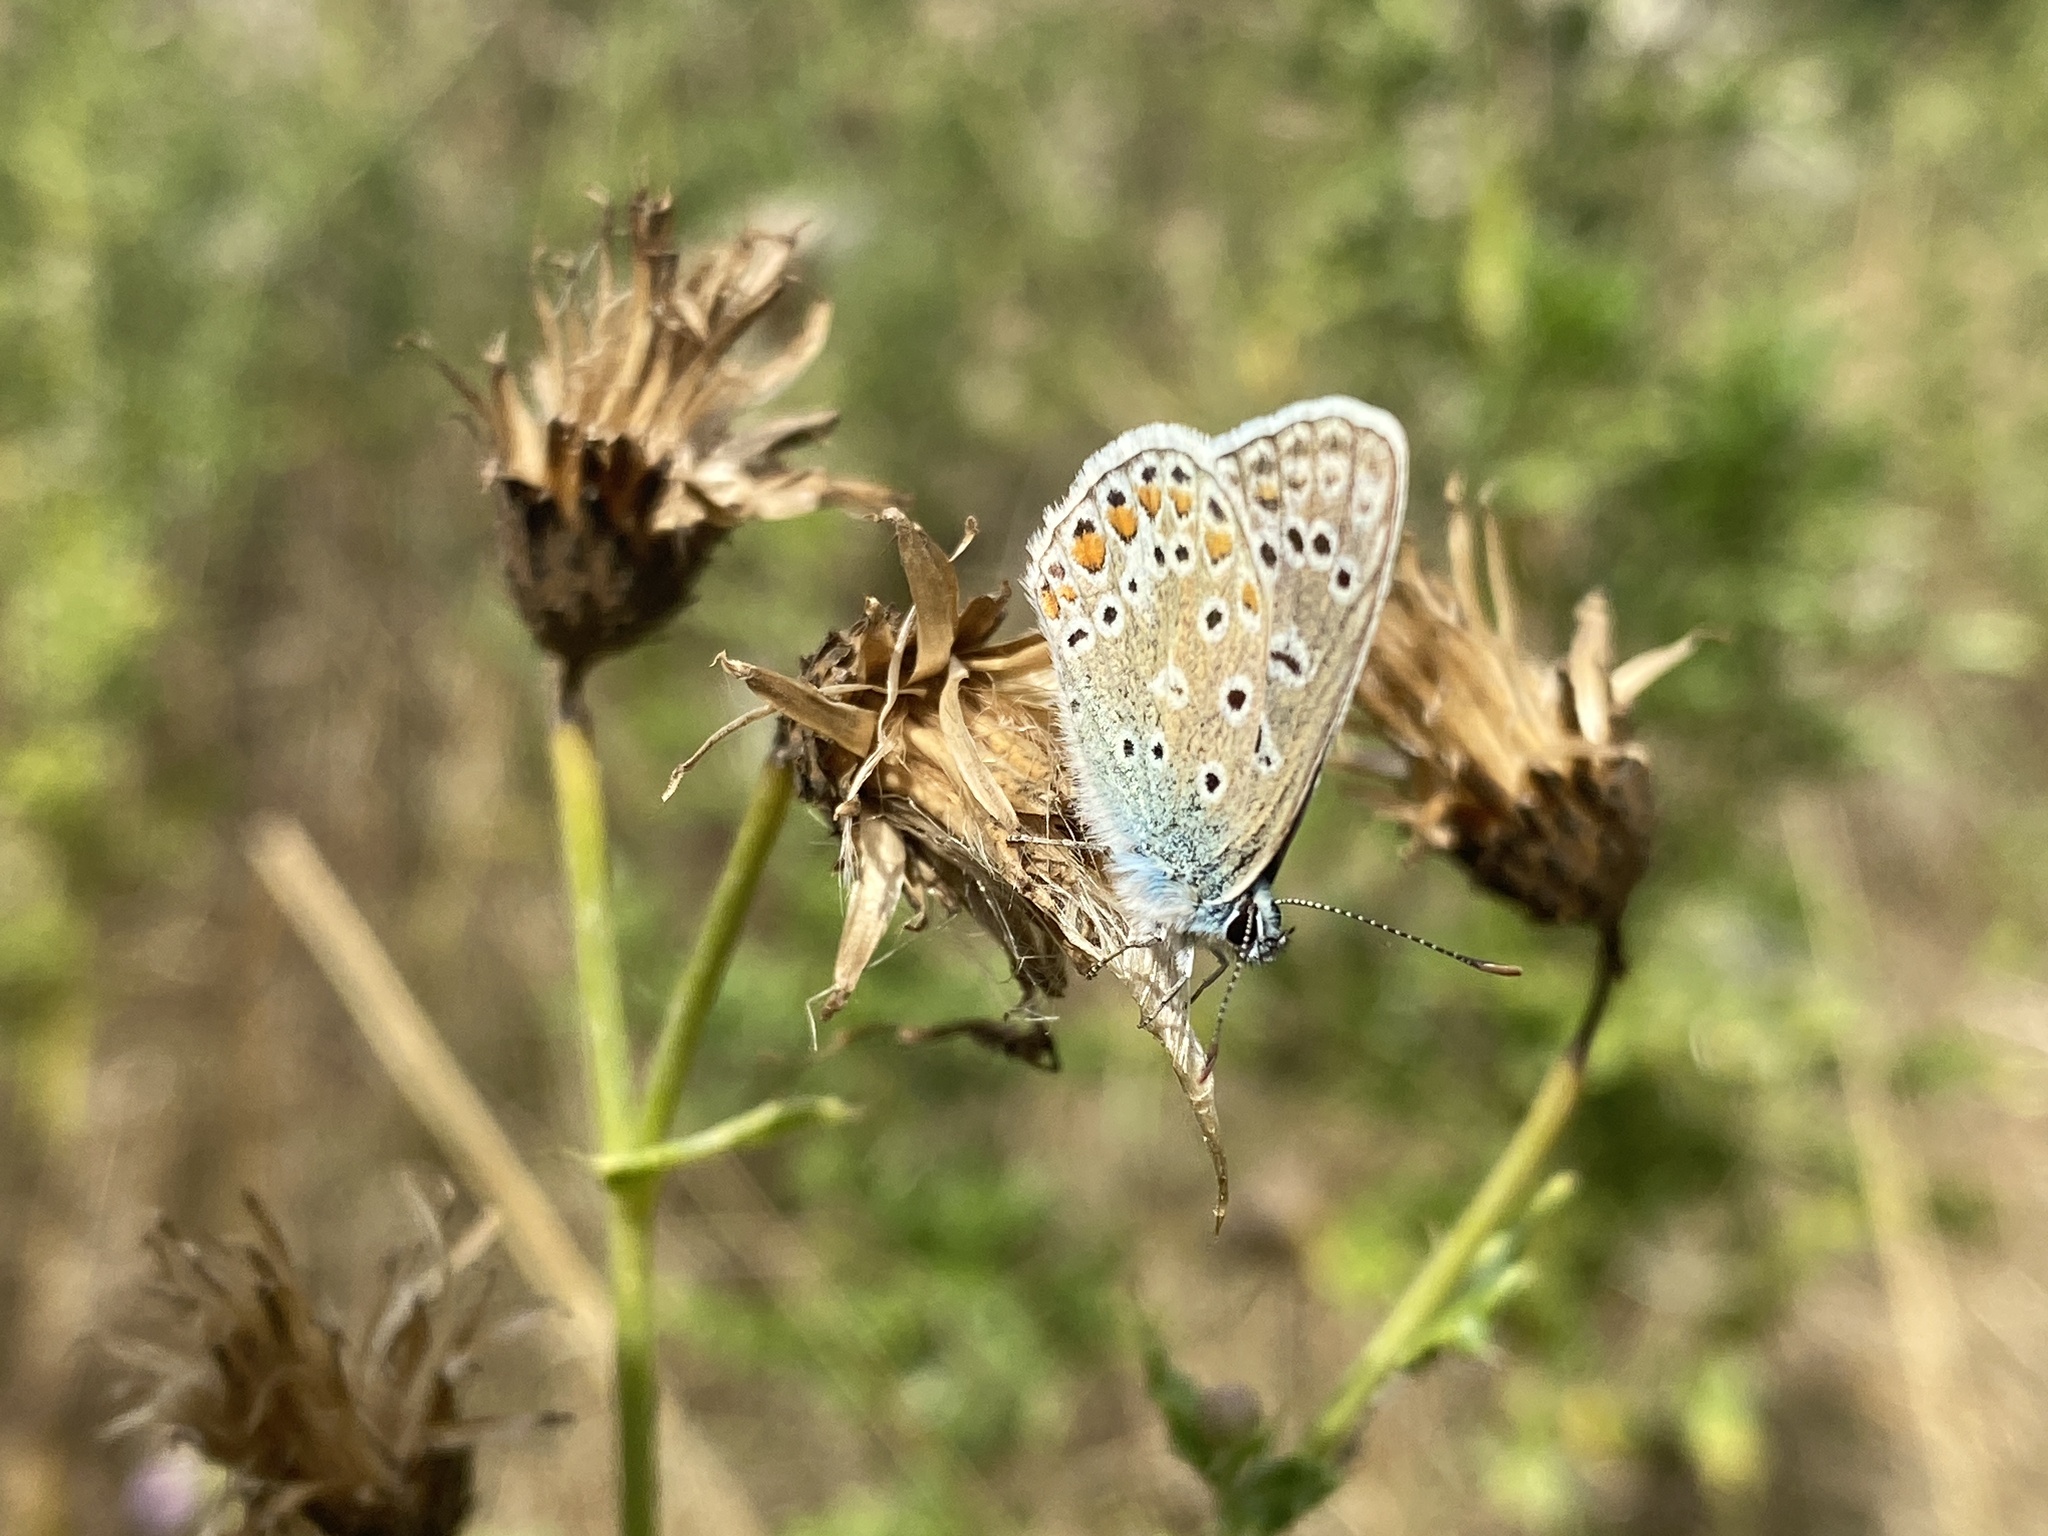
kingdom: Animalia
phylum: Arthropoda
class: Insecta
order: Lepidoptera
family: Lycaenidae
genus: Polyommatus
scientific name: Polyommatus icarus
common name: Common blue
